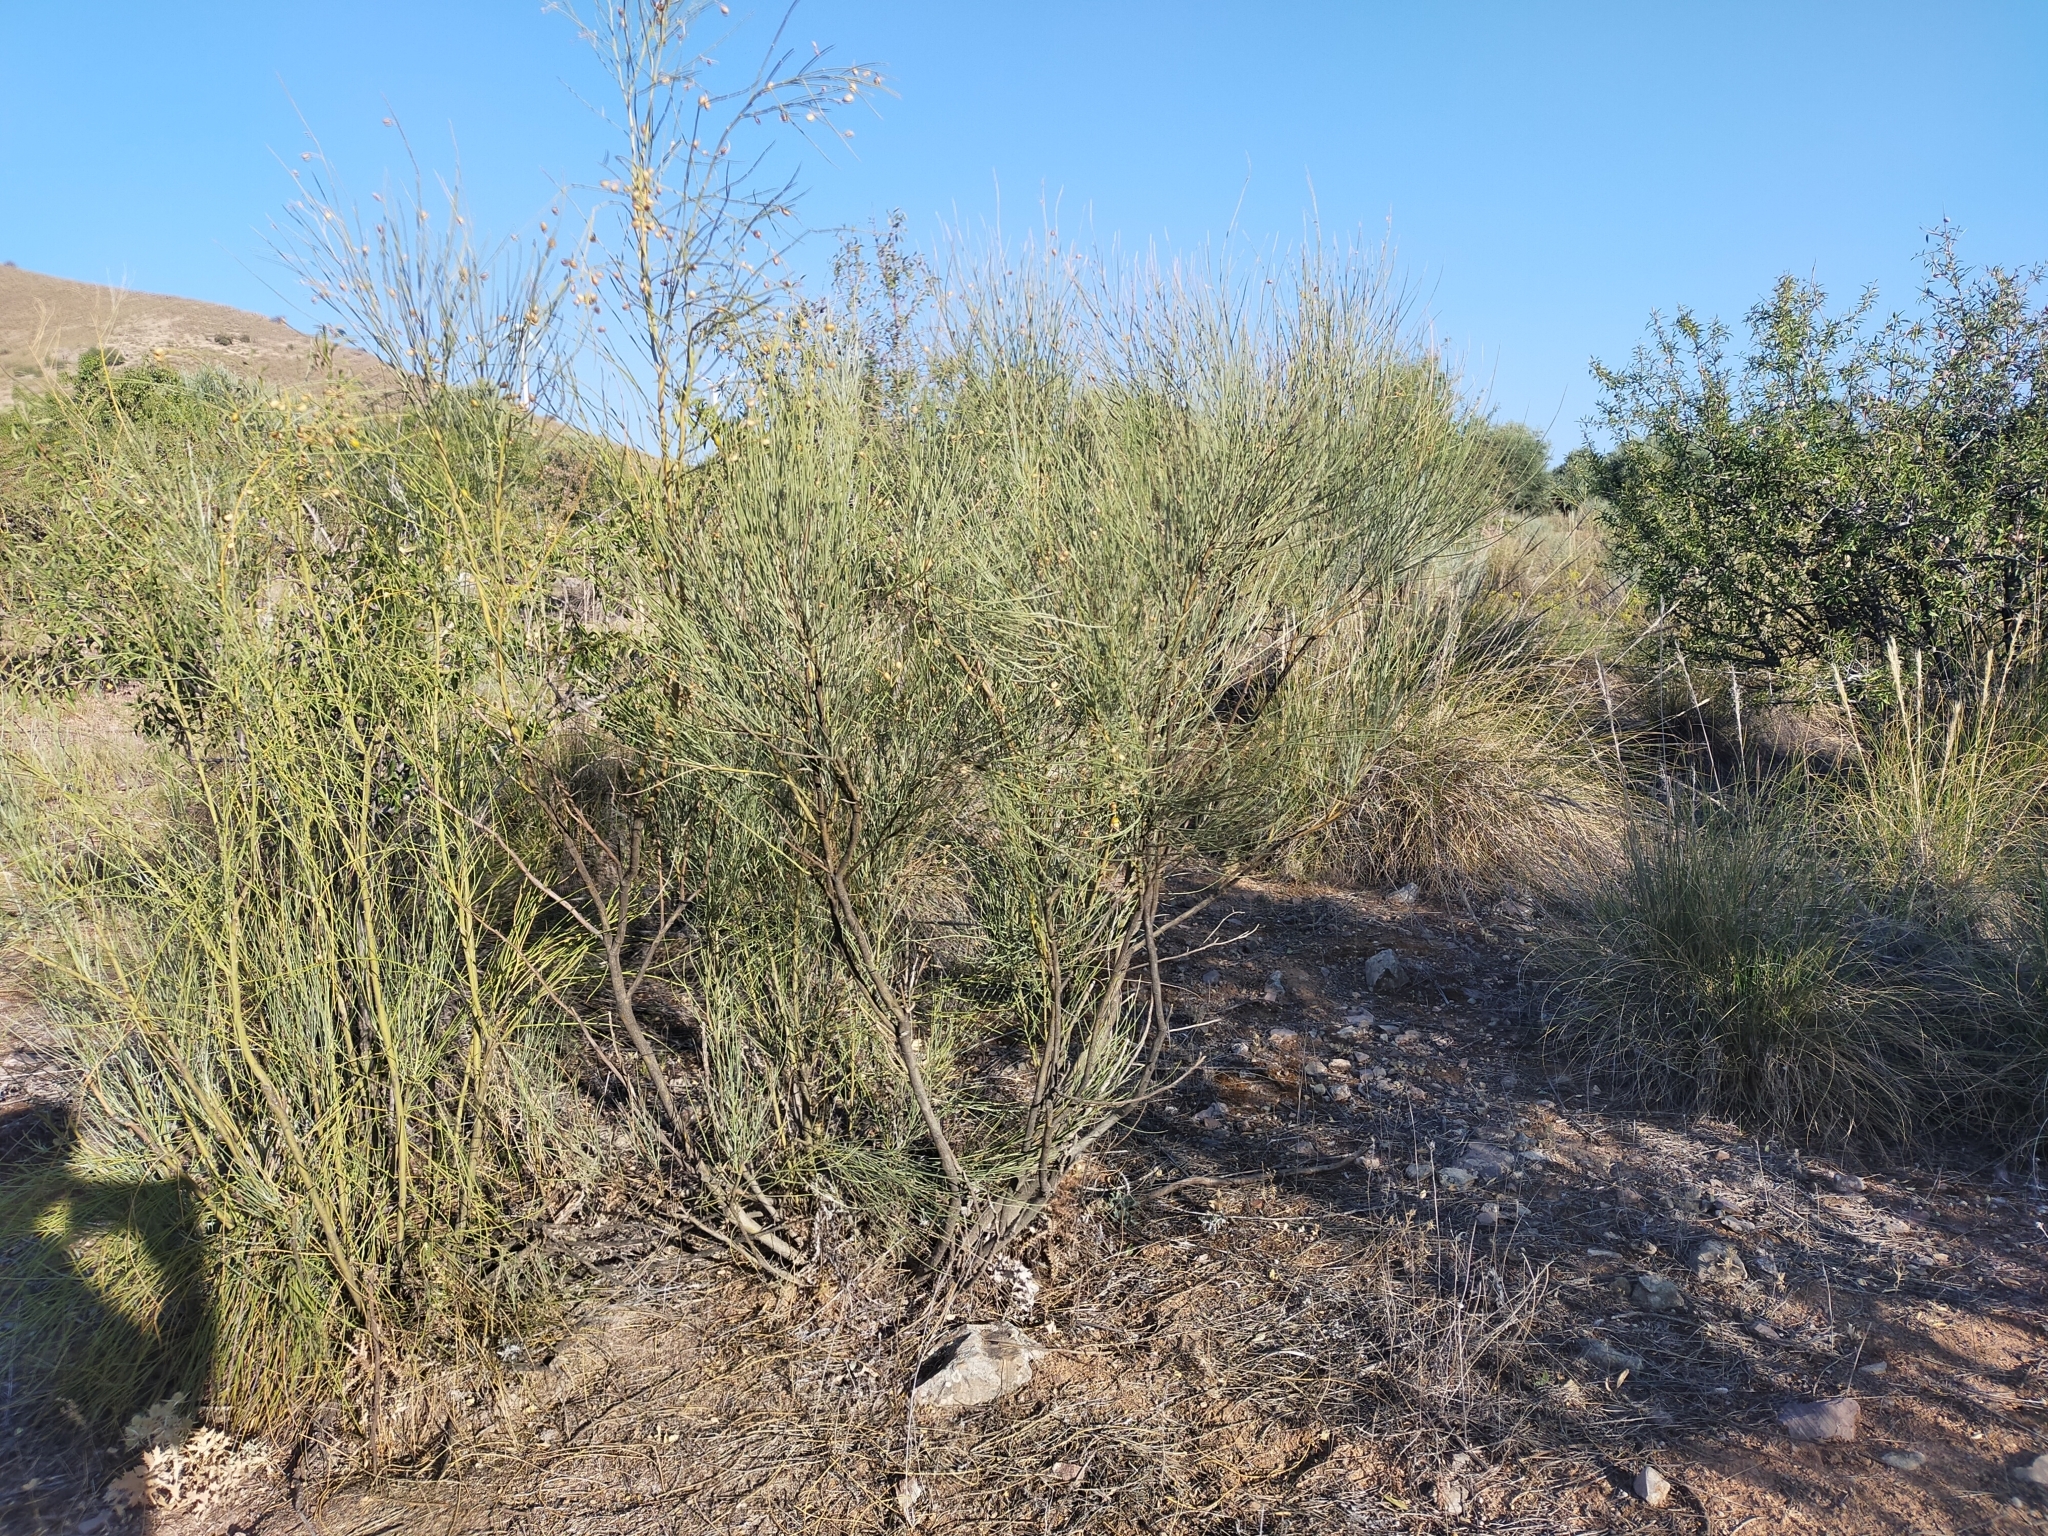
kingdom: Plantae
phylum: Tracheophyta
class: Magnoliopsida
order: Fabales
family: Fabaceae
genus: Retama
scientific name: Retama sphaerocarpa
